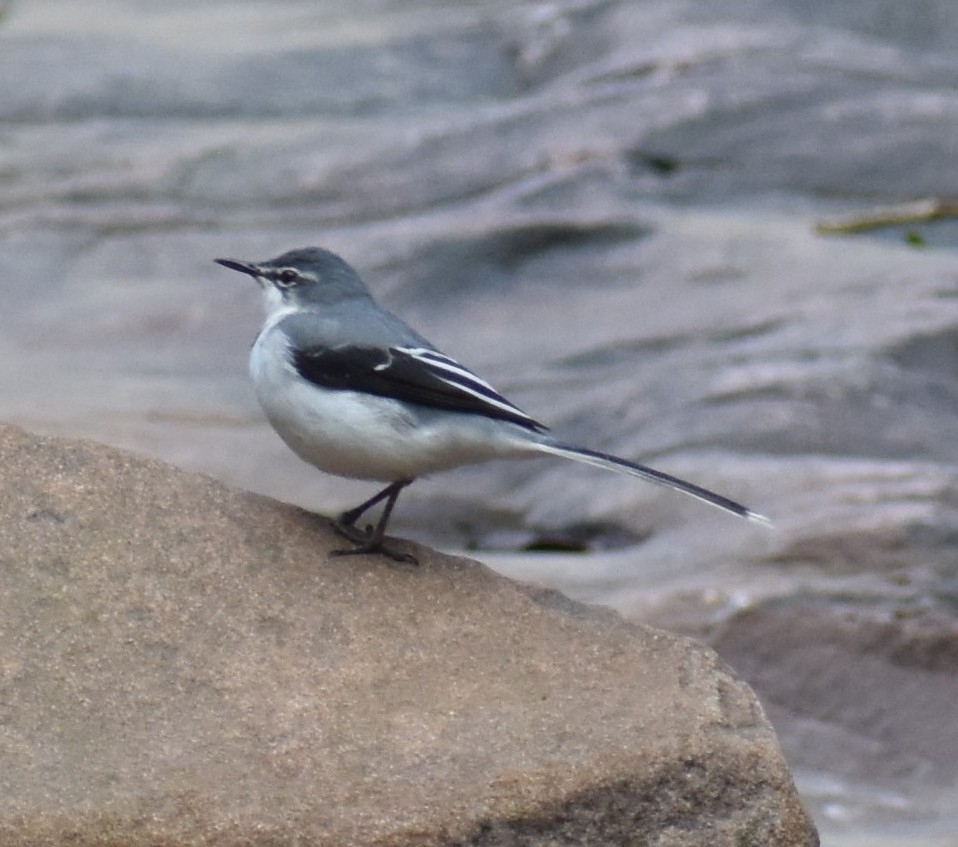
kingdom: Animalia
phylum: Chordata
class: Aves
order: Passeriformes
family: Motacillidae
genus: Motacilla
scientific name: Motacilla clara
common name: Mountain wagtail
